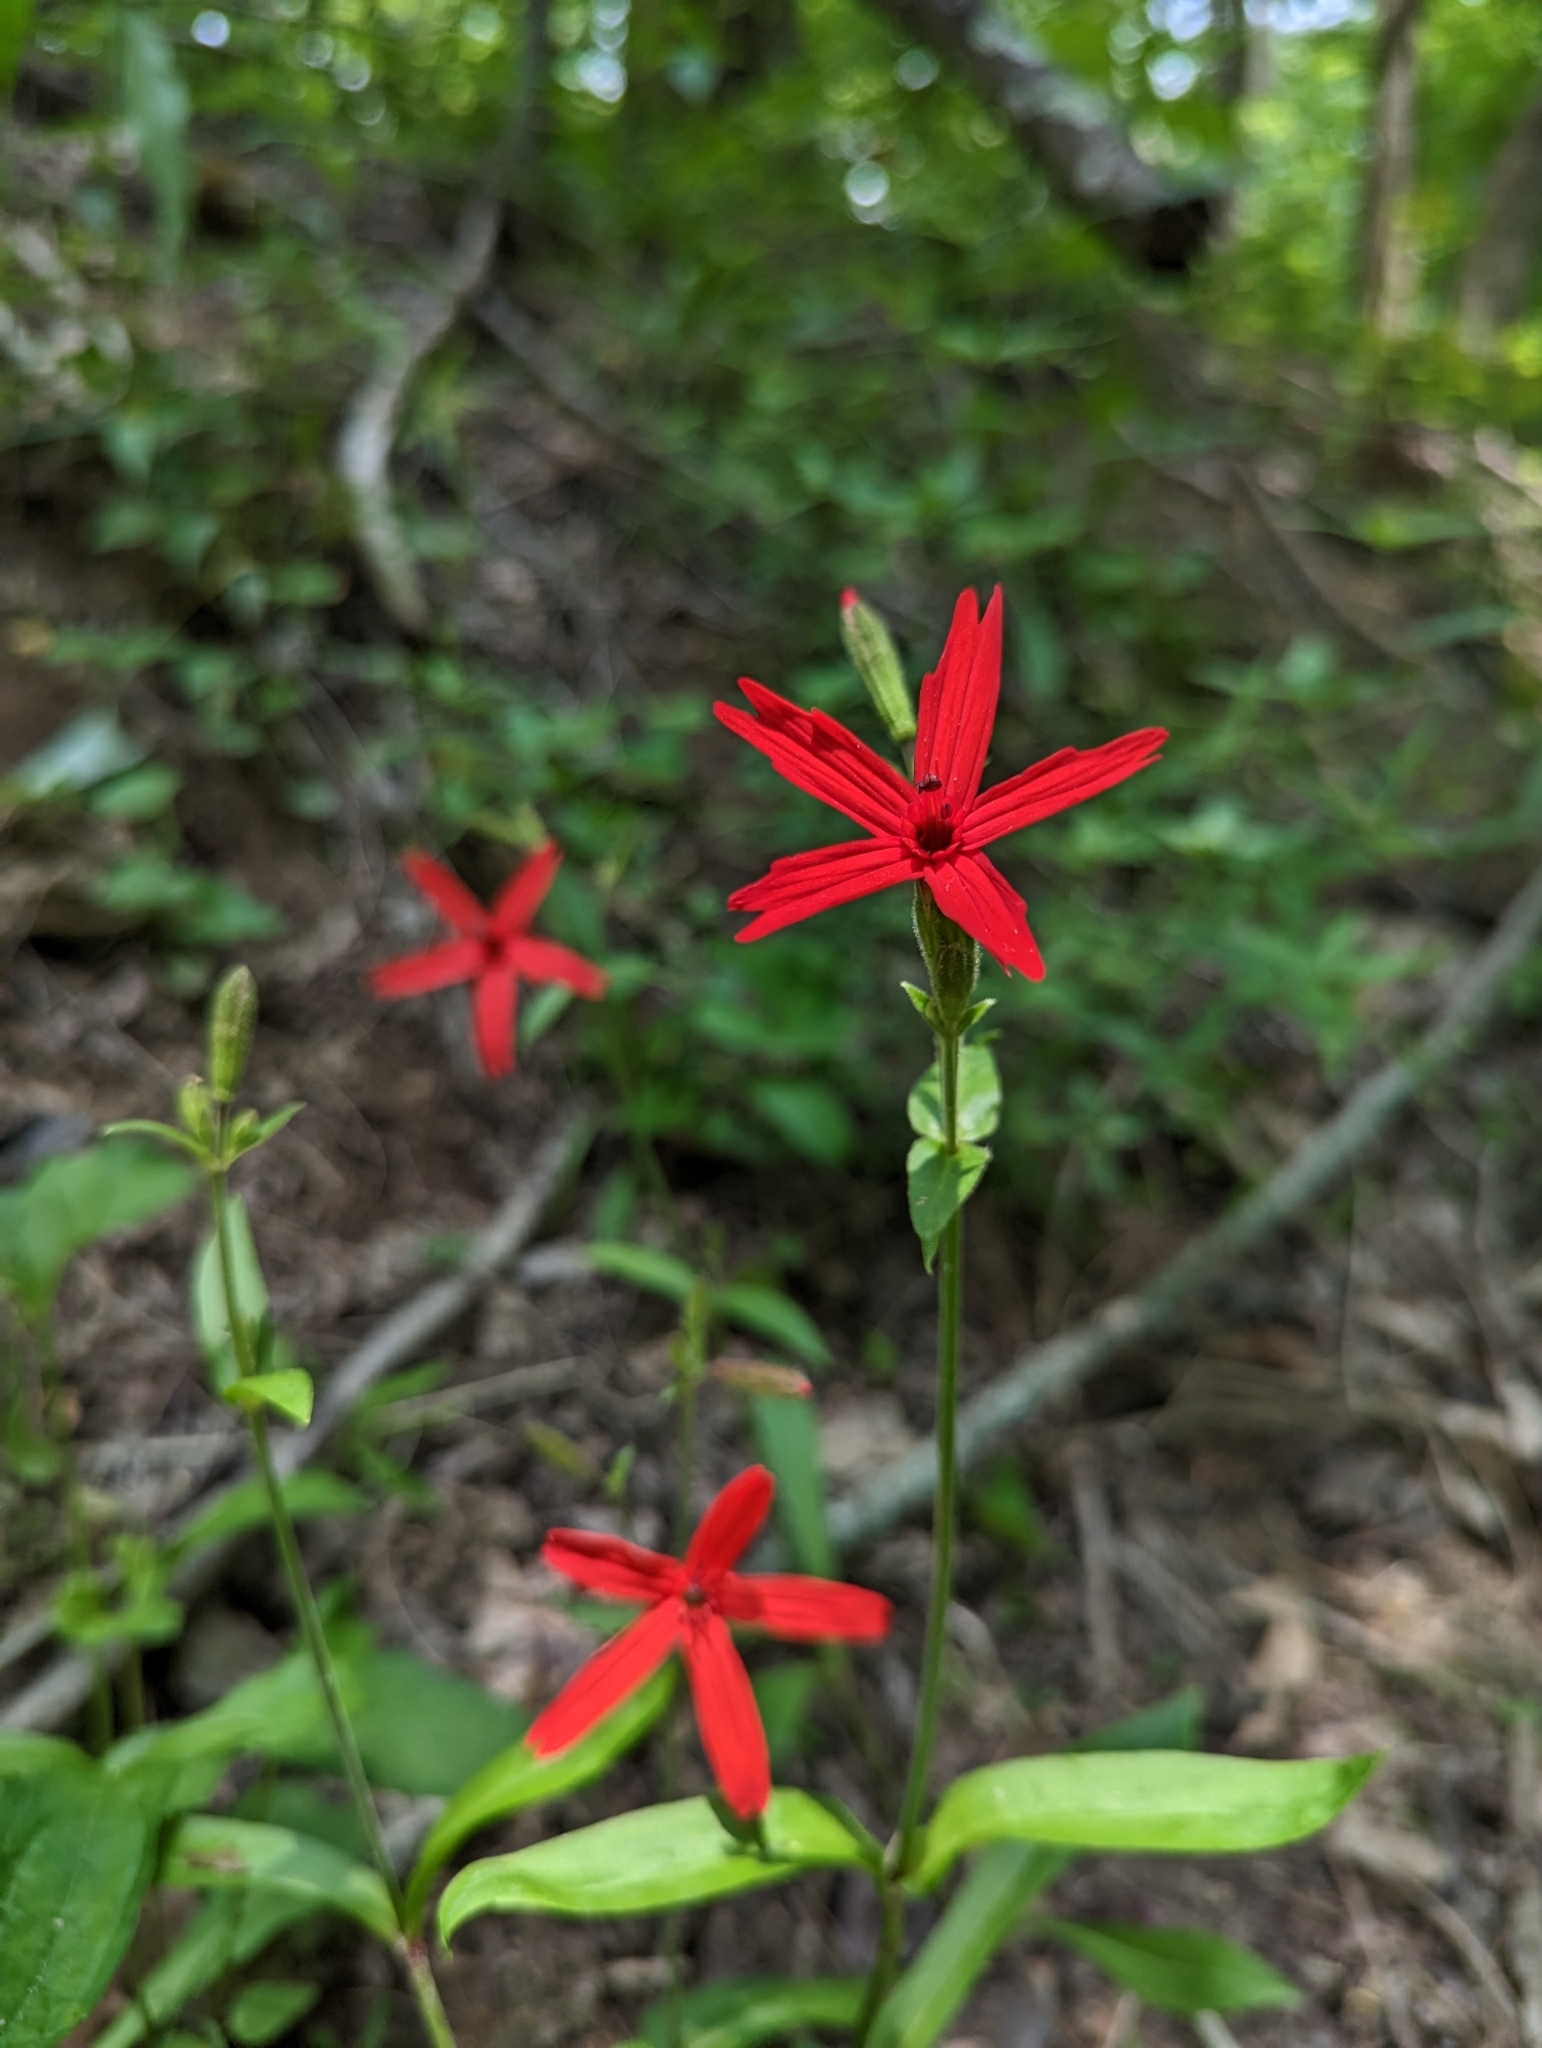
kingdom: Plantae
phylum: Tracheophyta
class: Magnoliopsida
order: Caryophyllales
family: Caryophyllaceae
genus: Silene
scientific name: Silene virginica
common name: Fire-pink
